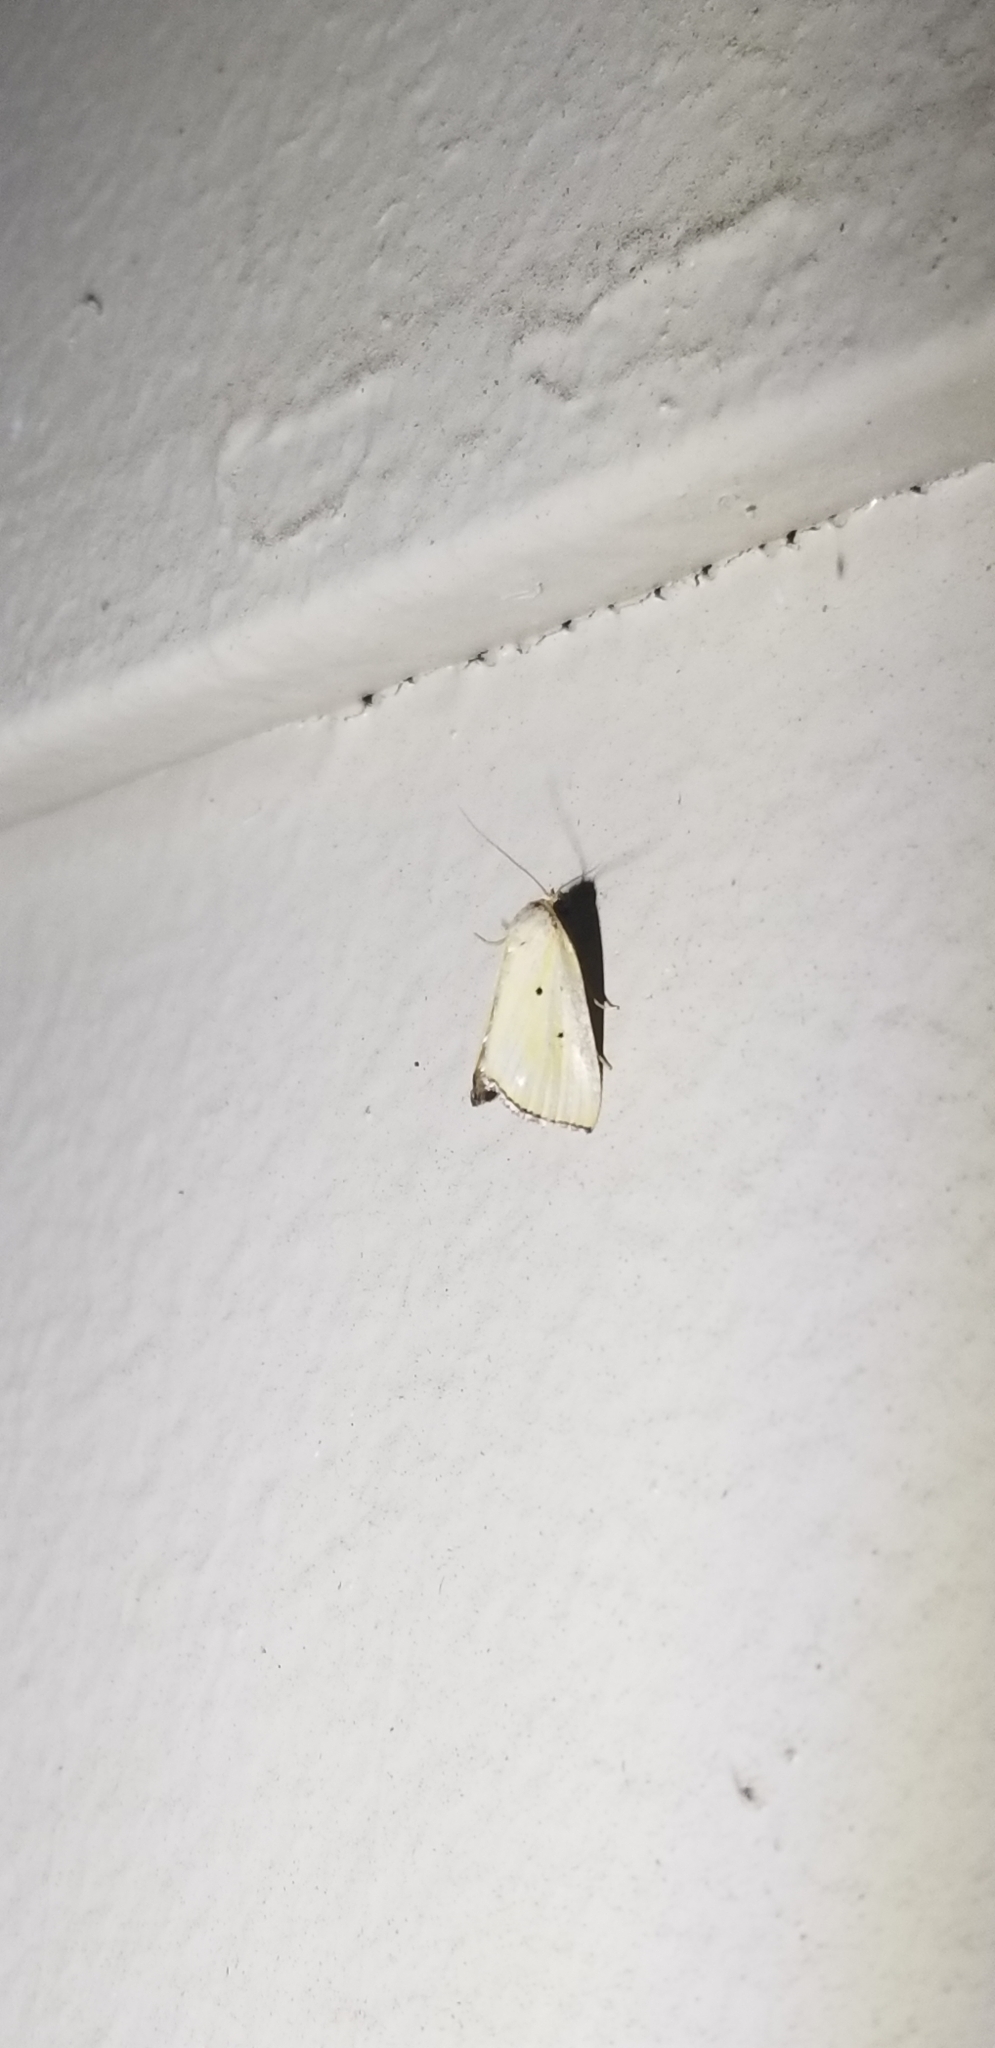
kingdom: Animalia
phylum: Arthropoda
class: Insecta
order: Lepidoptera
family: Noctuidae
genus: Marimatha
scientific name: Marimatha nigrofimbria
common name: Black-bordered lemon moth
